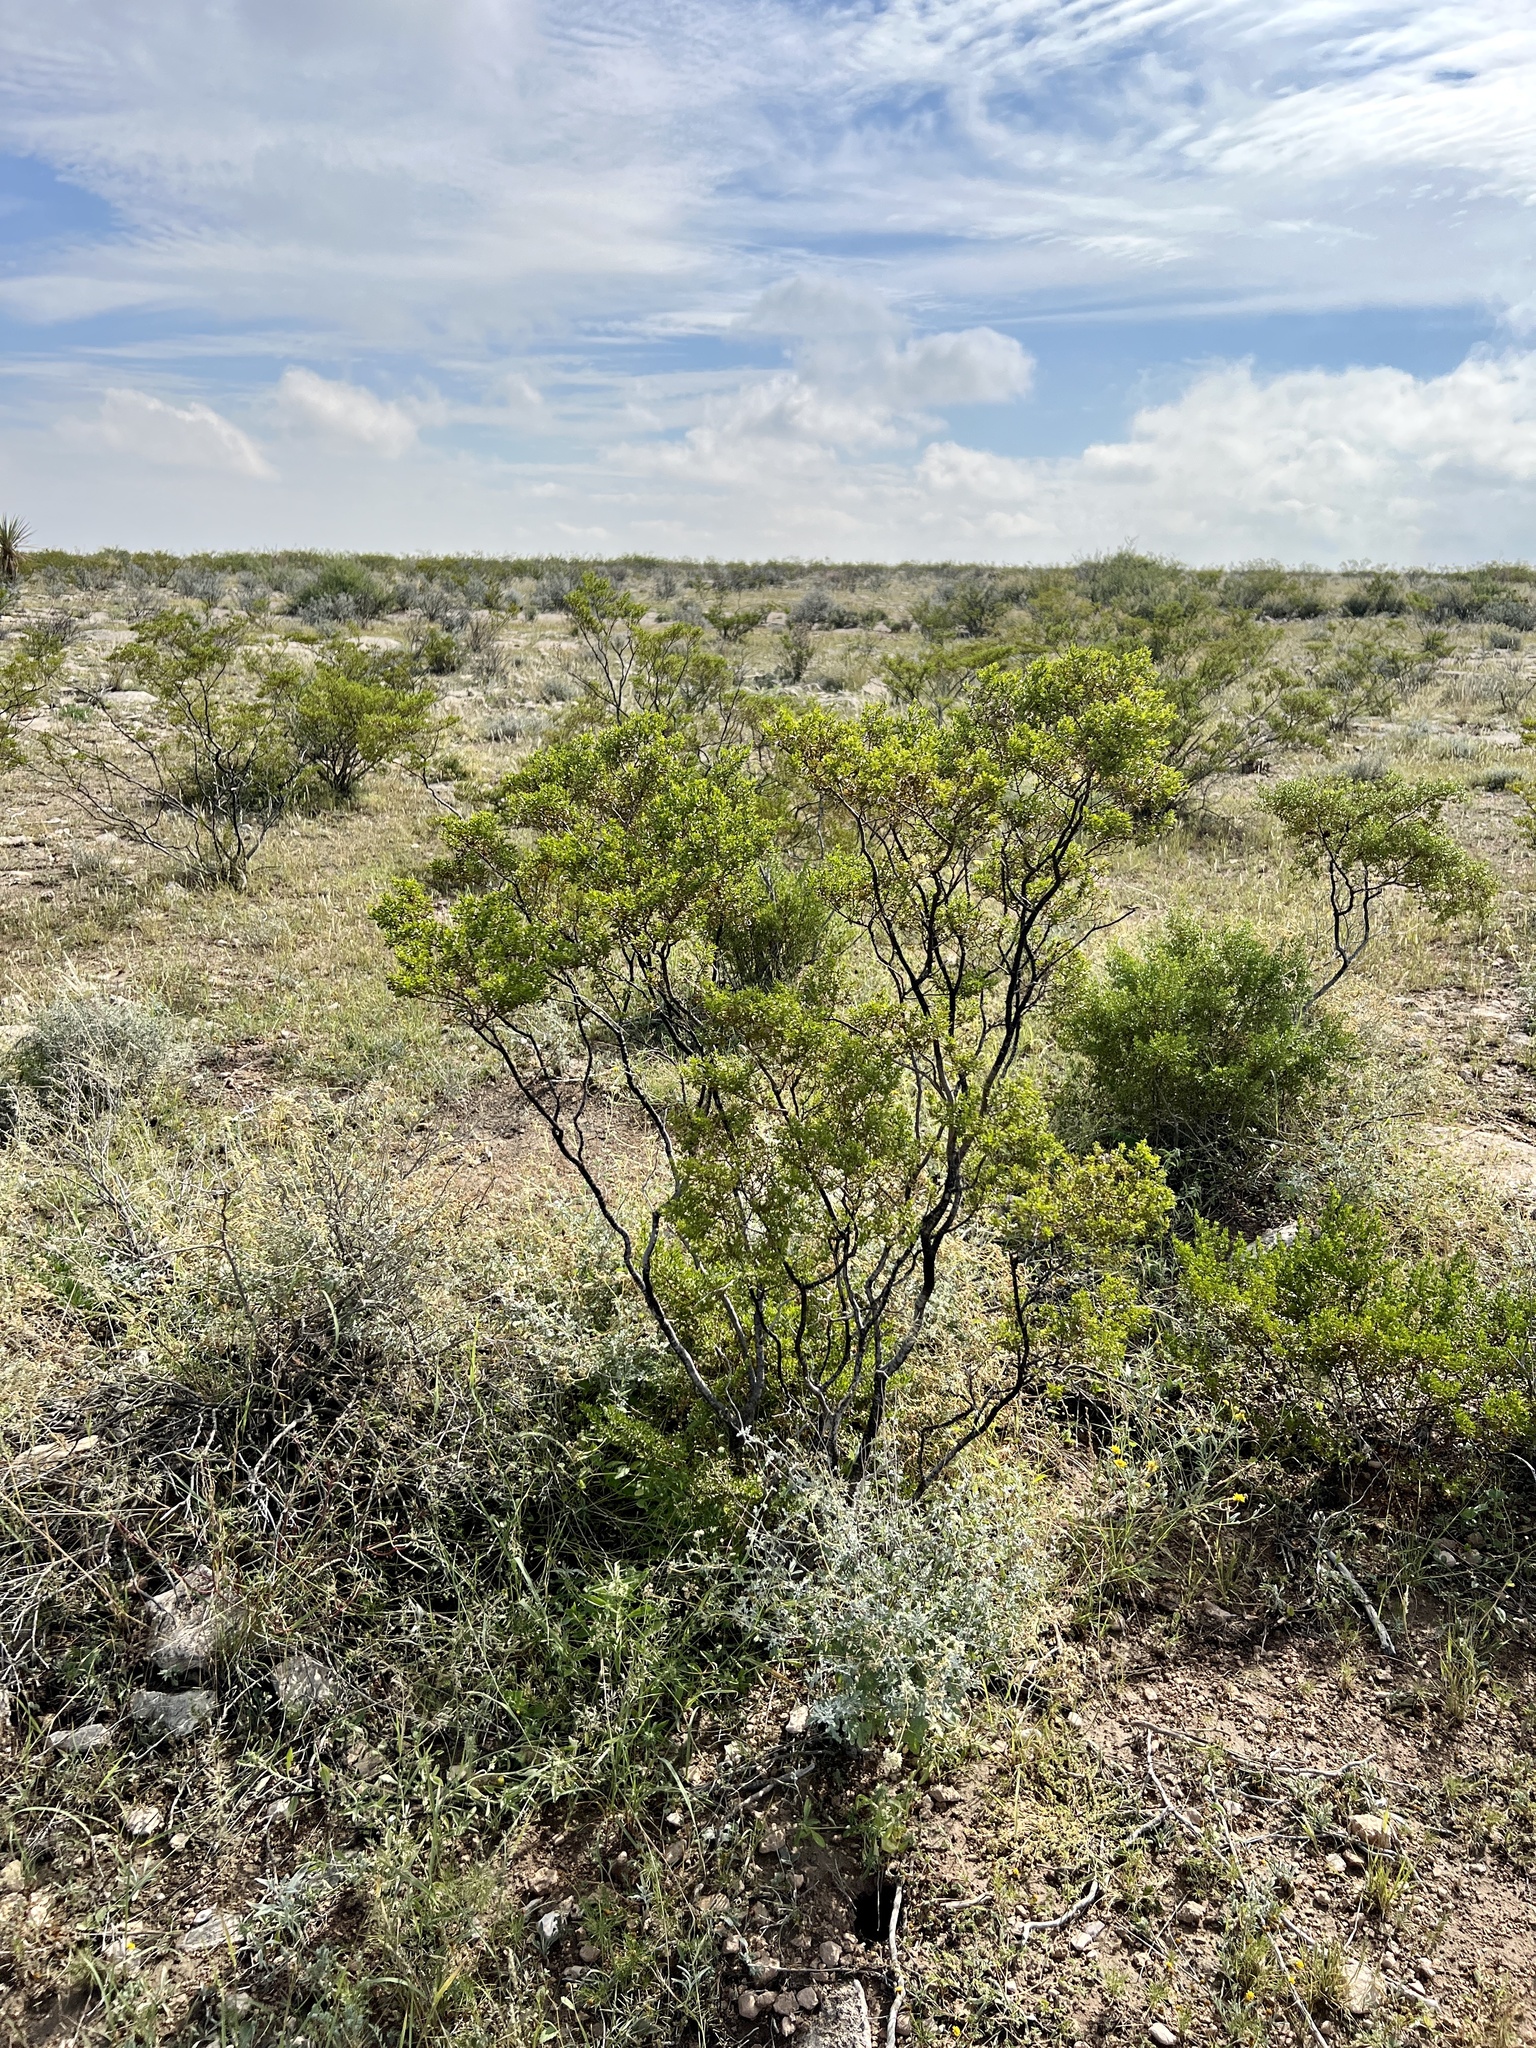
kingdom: Plantae
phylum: Tracheophyta
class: Magnoliopsida
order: Zygophyllales
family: Zygophyllaceae
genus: Larrea
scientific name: Larrea tridentata
